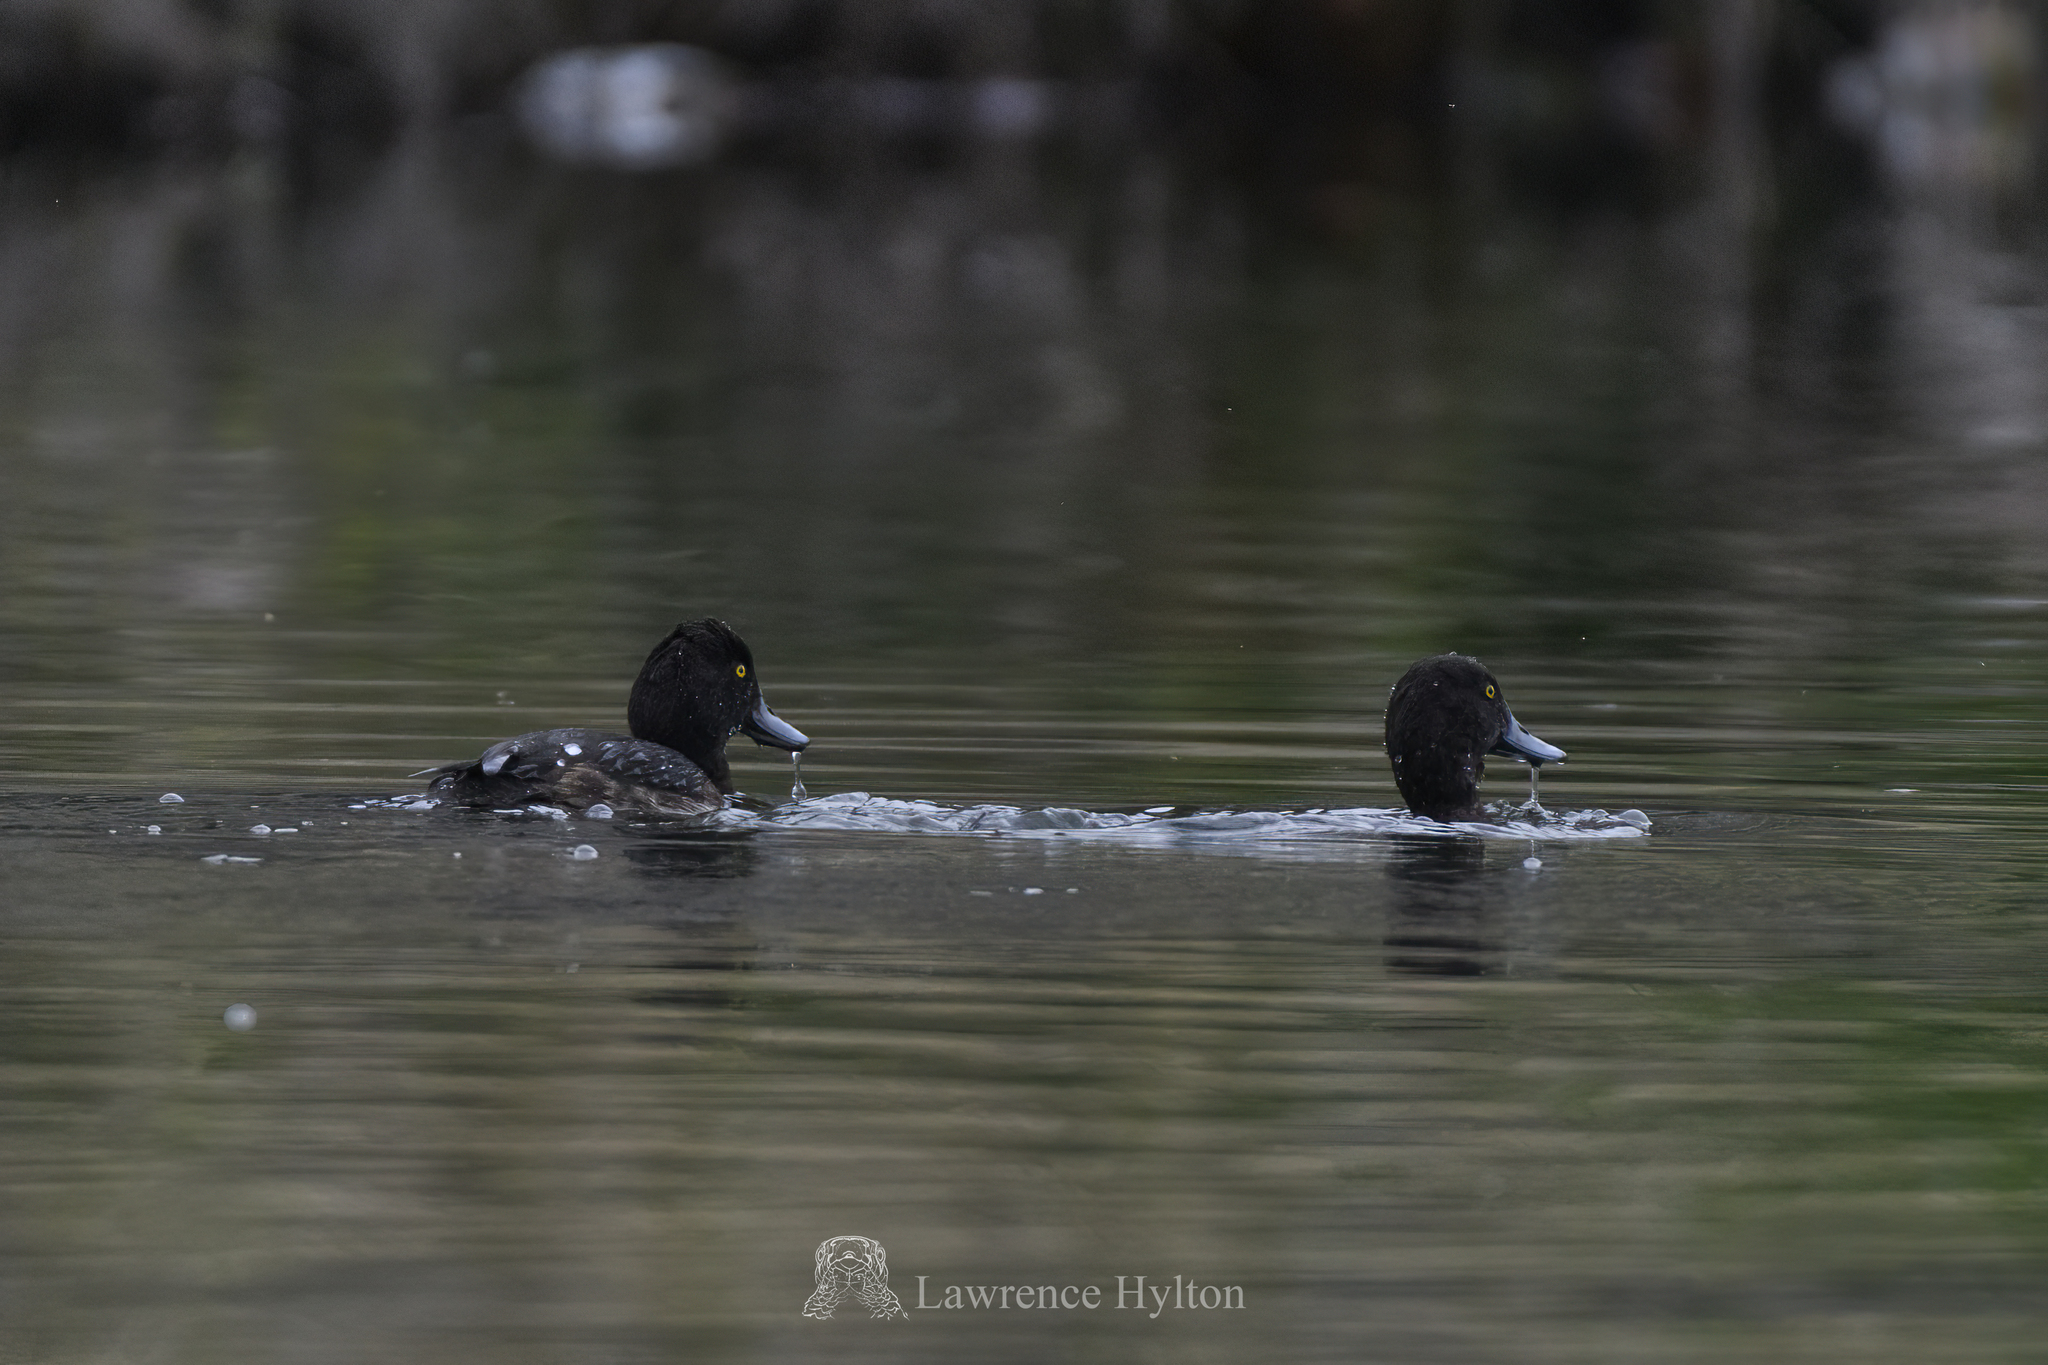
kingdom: Animalia
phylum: Chordata
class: Aves
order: Anseriformes
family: Anatidae
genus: Aythya
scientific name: Aythya fuligula
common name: Tufted duck
